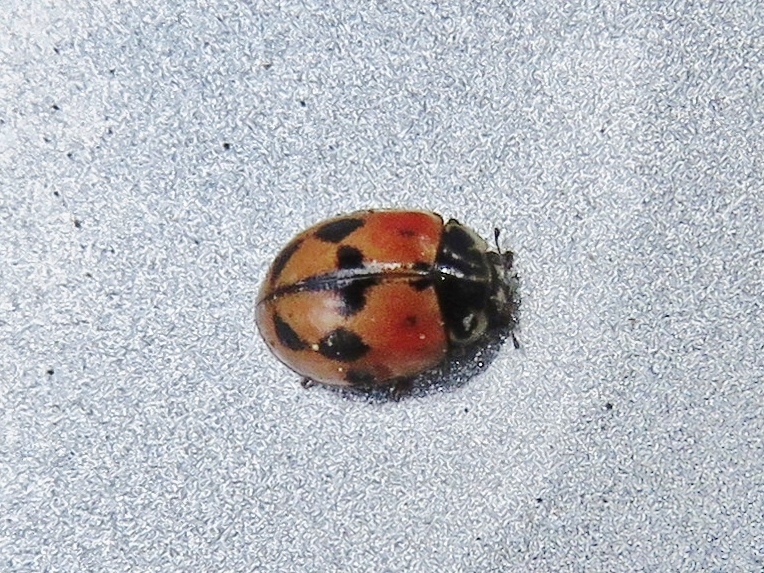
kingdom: Animalia
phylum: Arthropoda
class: Insecta
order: Coleoptera
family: Coccinellidae
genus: Adalia
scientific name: Adalia bipunctata
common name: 2-spot ladybird
